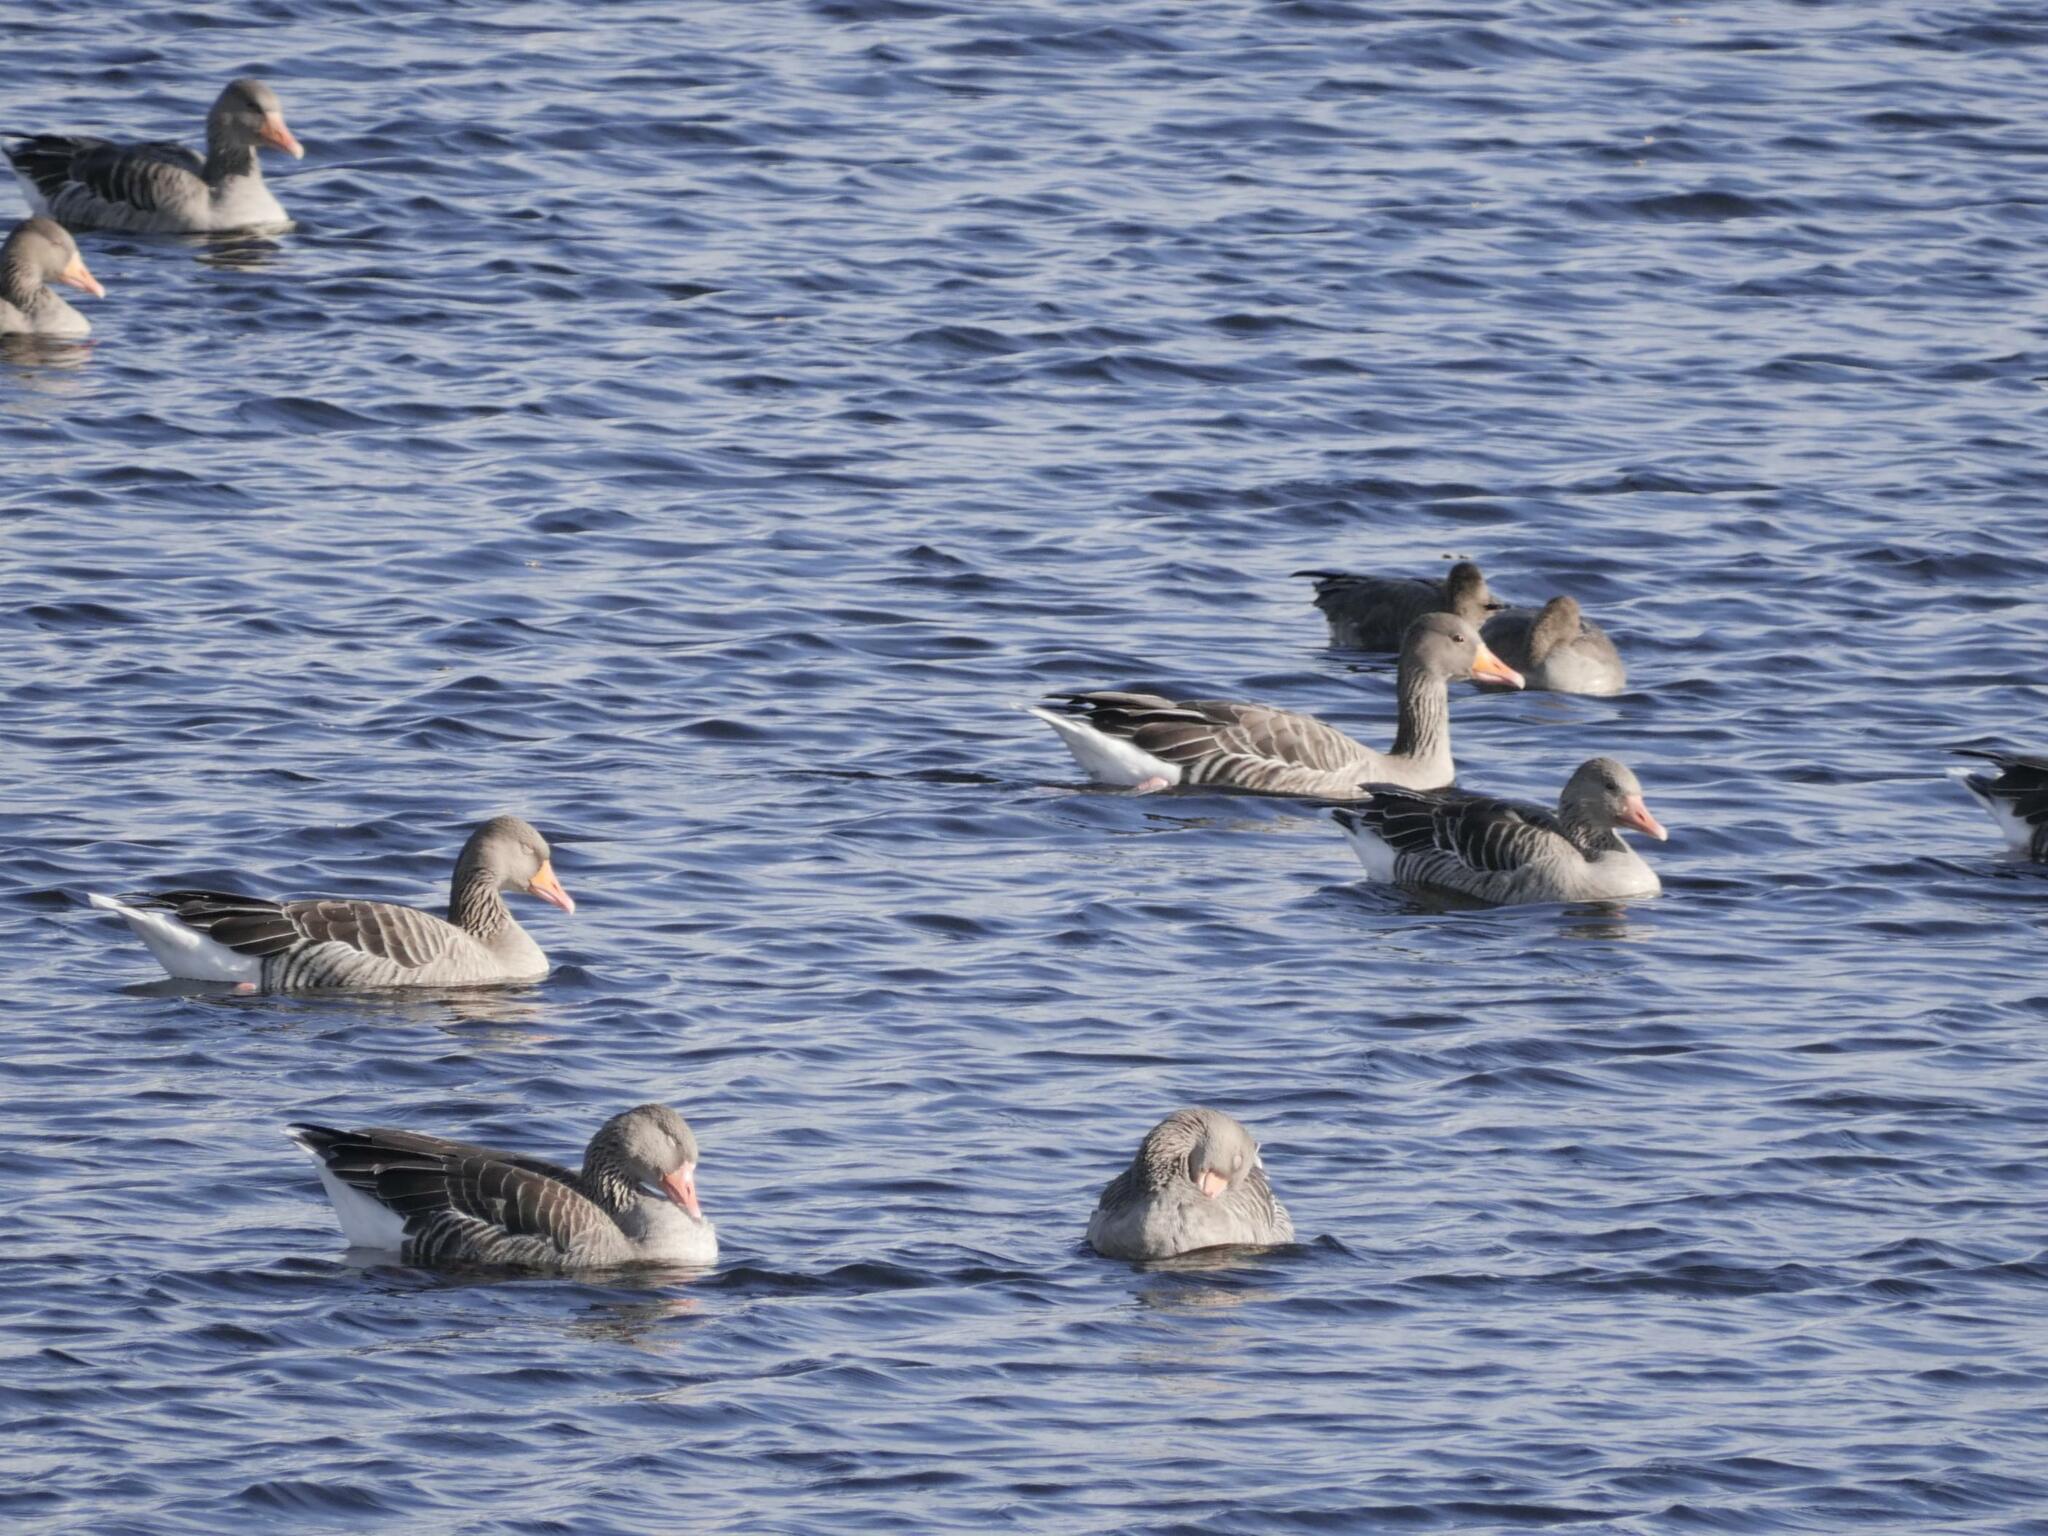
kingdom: Animalia
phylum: Chordata
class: Aves
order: Anseriformes
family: Anatidae
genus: Anser
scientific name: Anser anser
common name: Greylag goose
